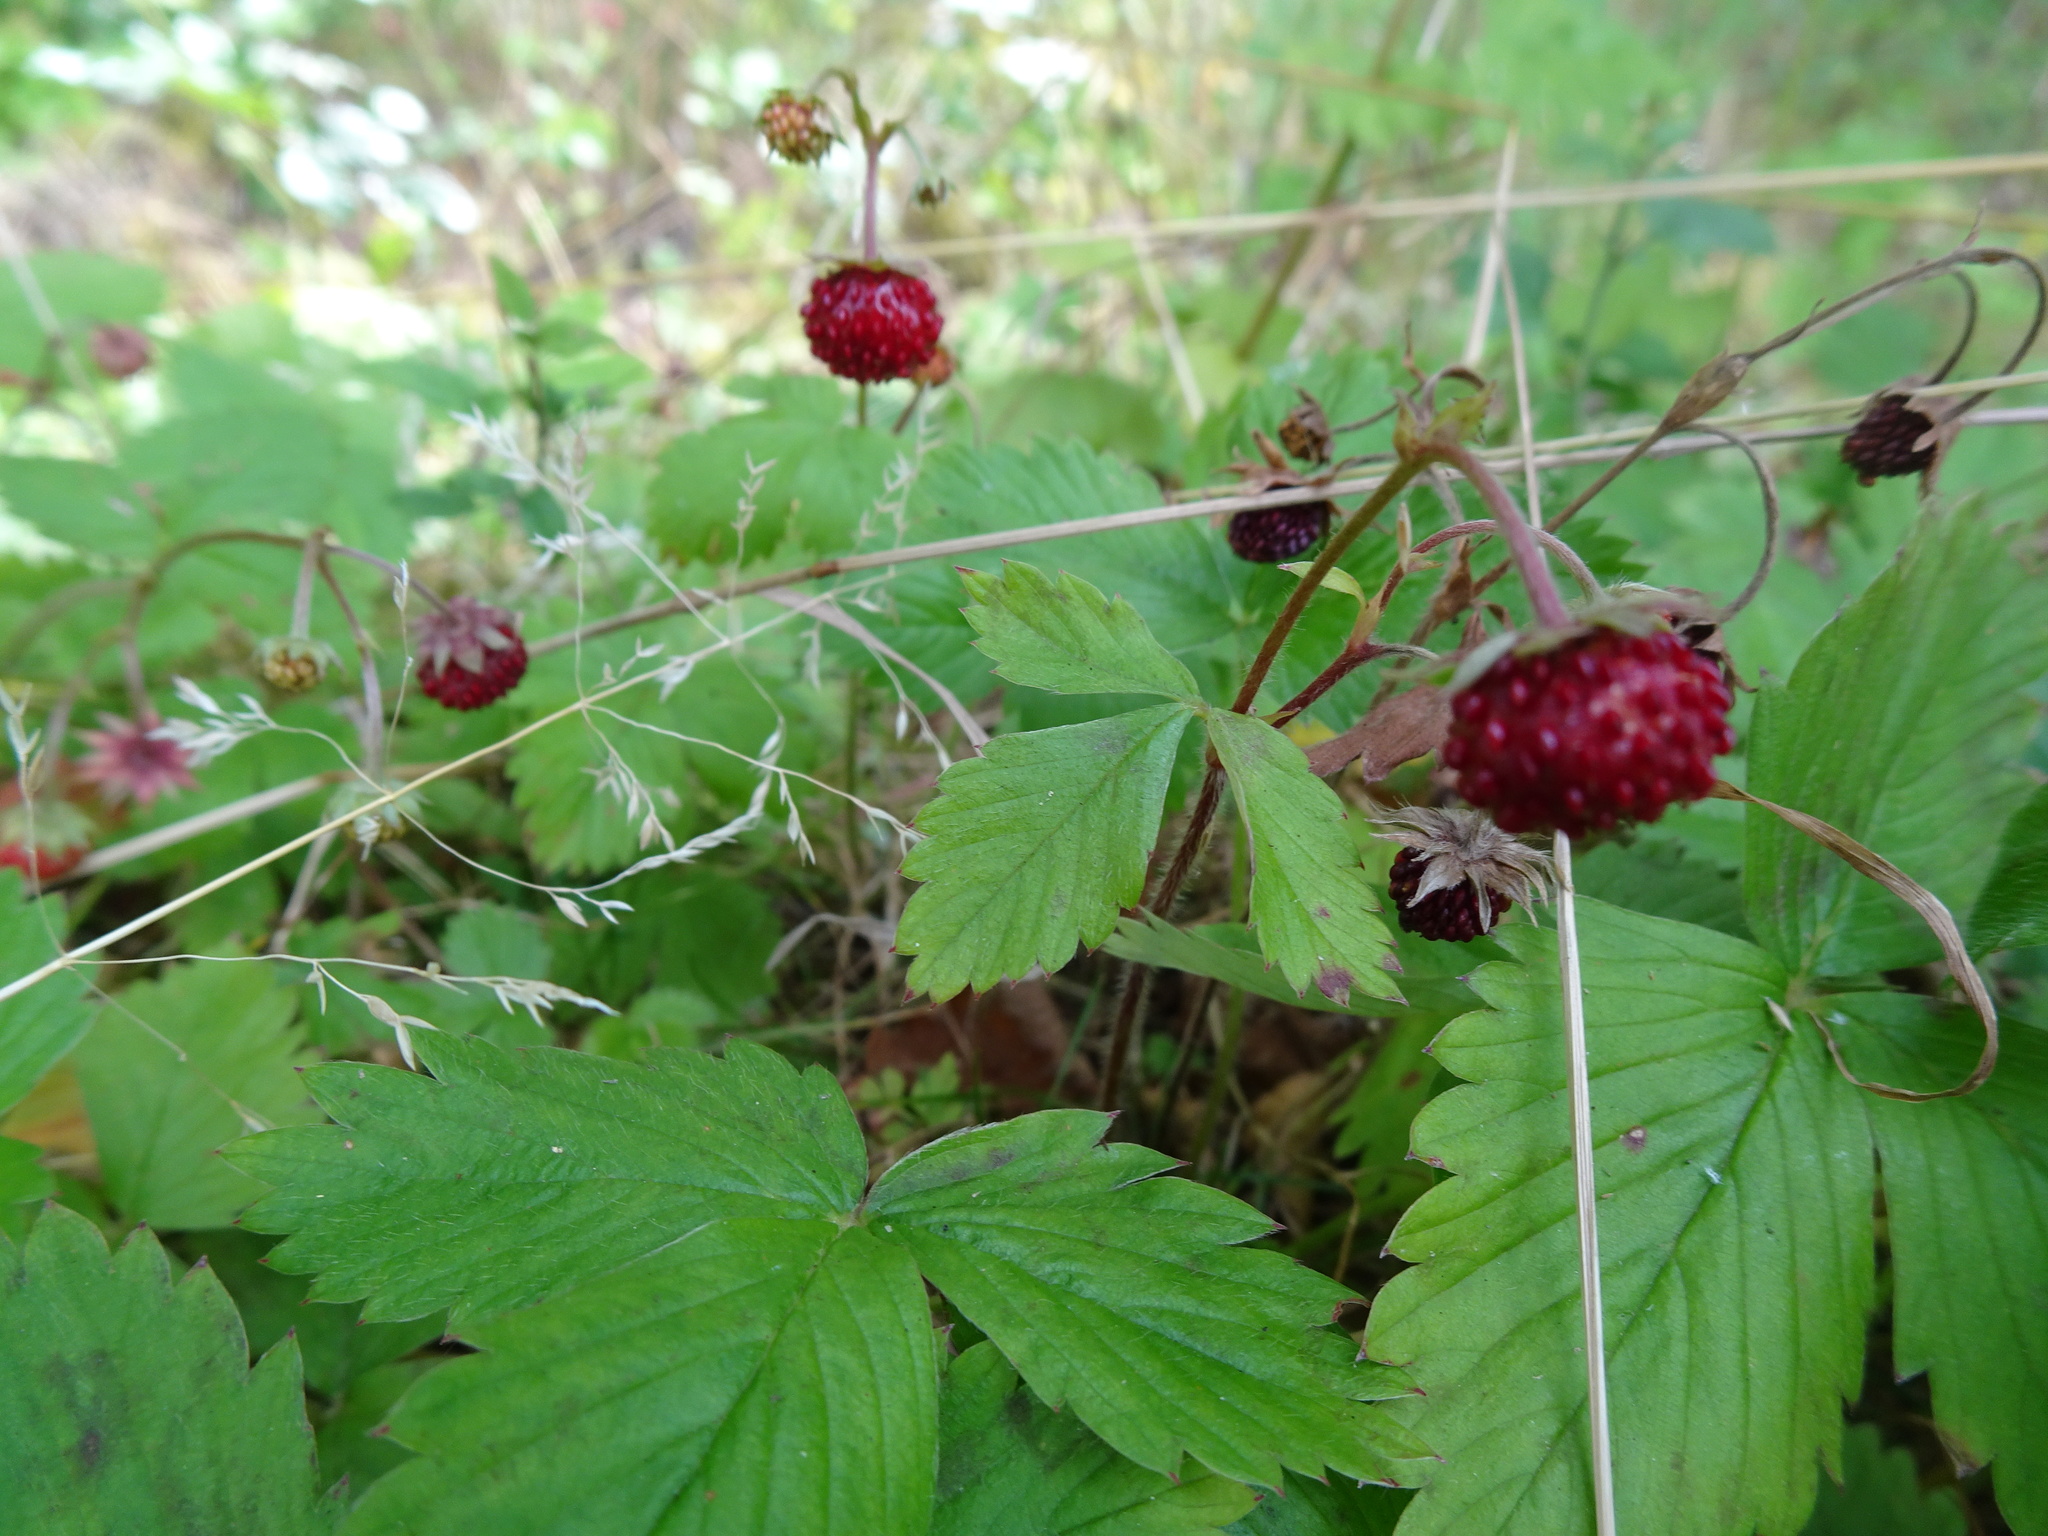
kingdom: Plantae
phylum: Tracheophyta
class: Magnoliopsida
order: Rosales
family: Rosaceae
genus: Fragaria
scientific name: Fragaria vesca
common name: Wild strawberry
